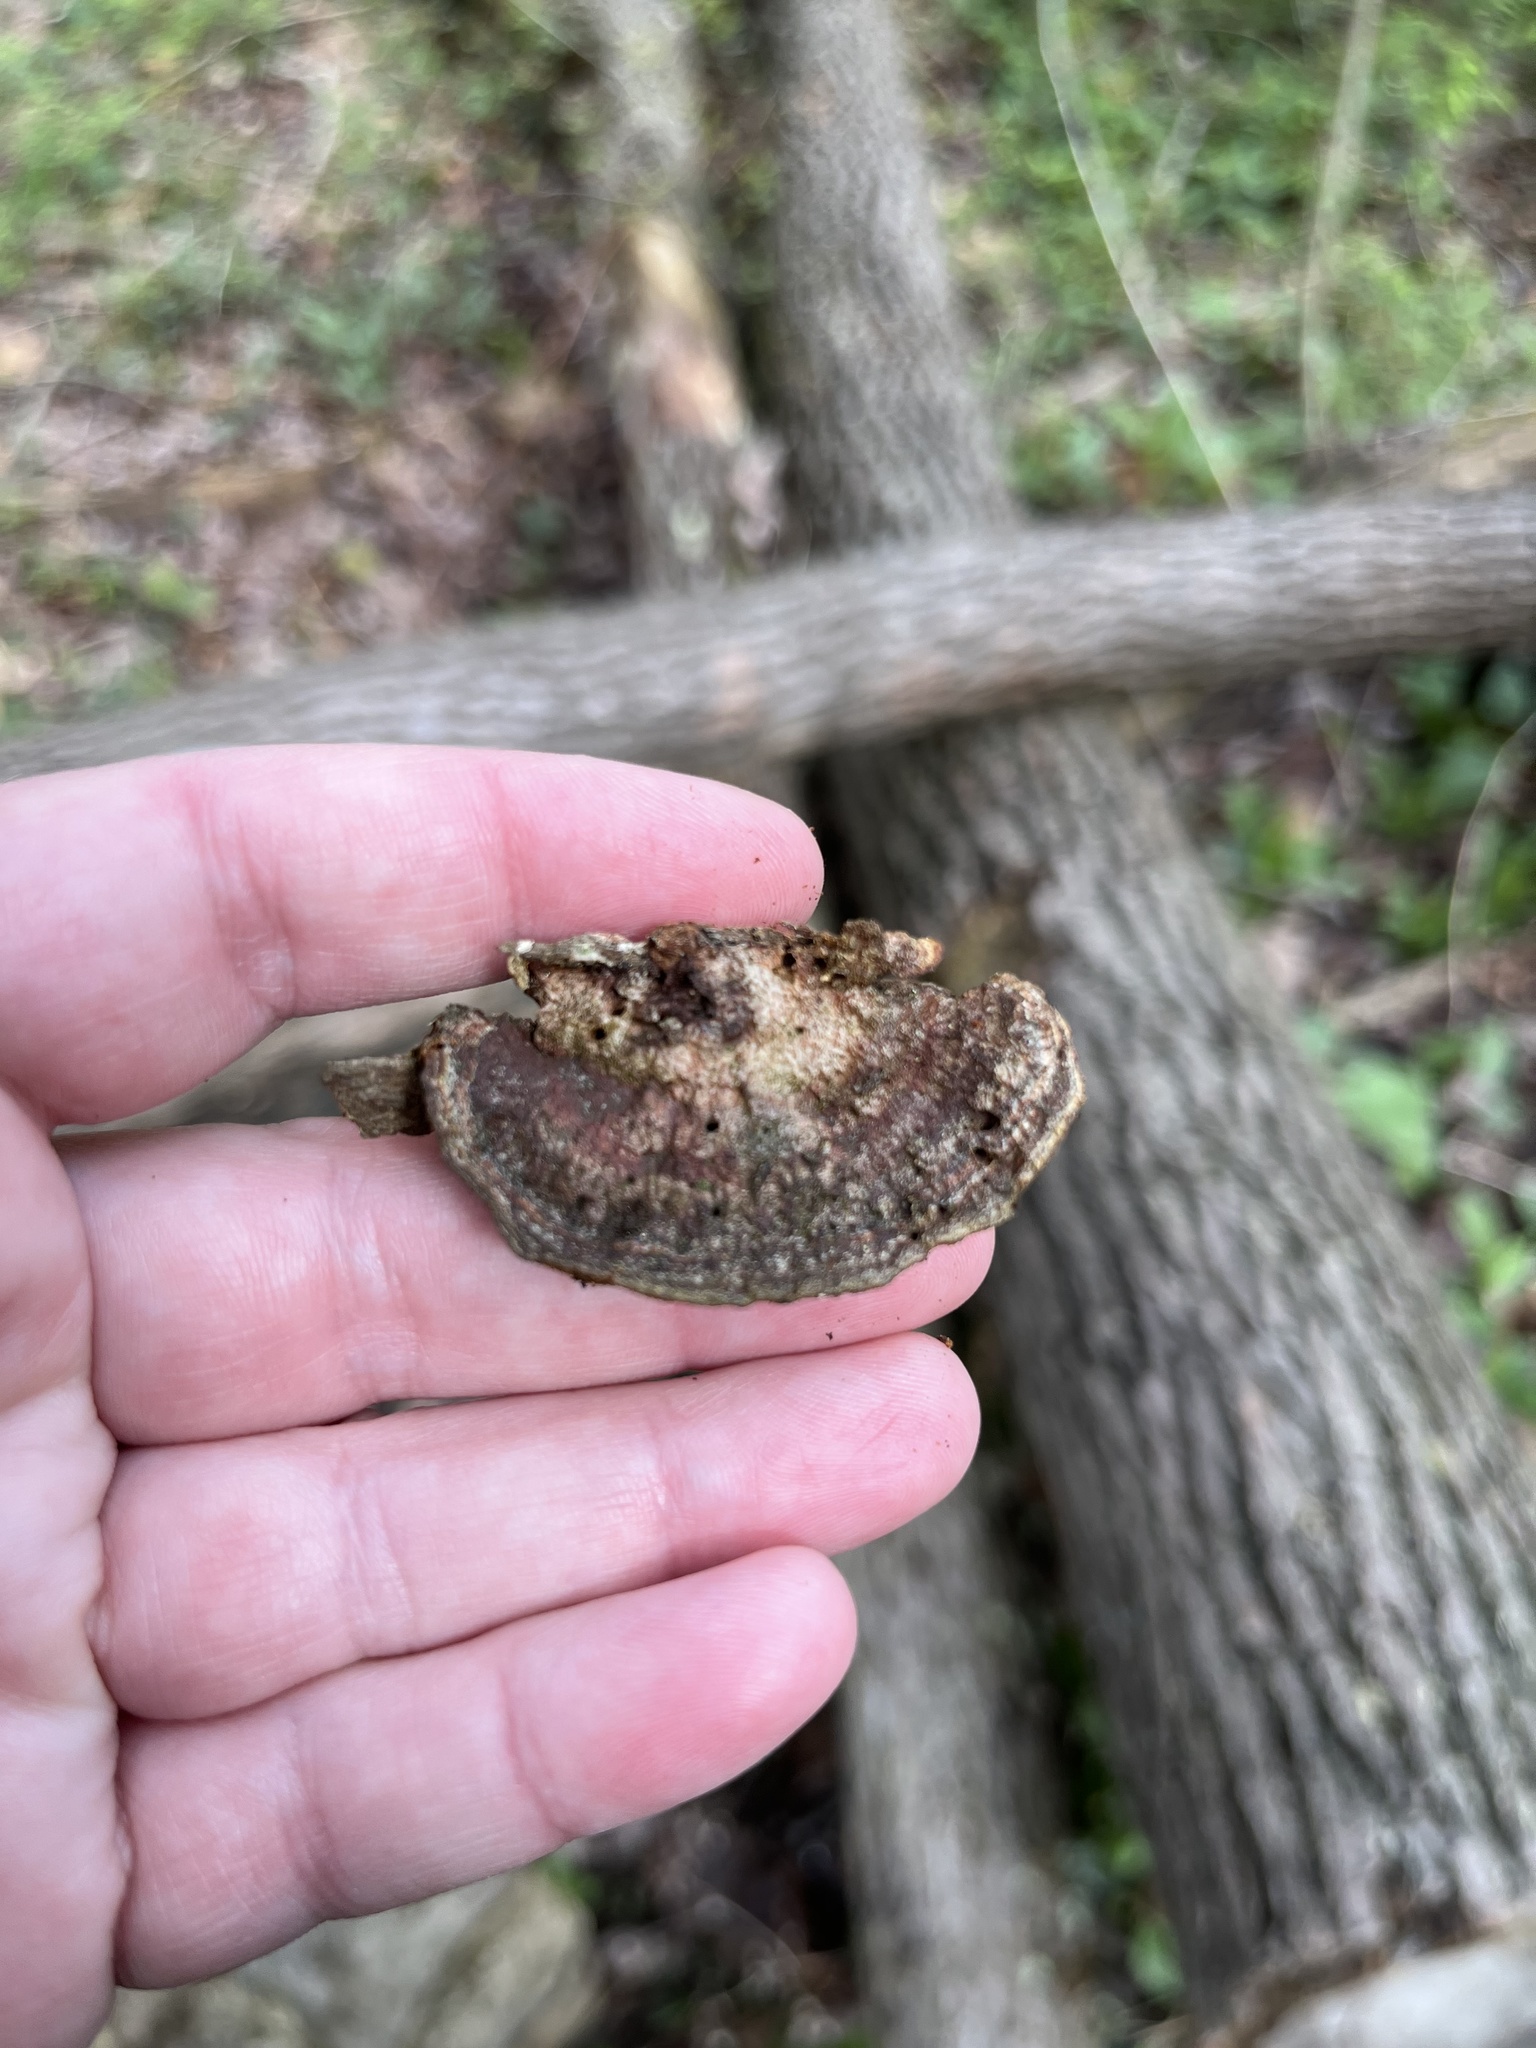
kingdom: Fungi
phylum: Basidiomycota
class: Agaricomycetes
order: Hymenochaetales
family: Hymenochaetaceae
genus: Phellinus
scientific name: Phellinus gilvus
